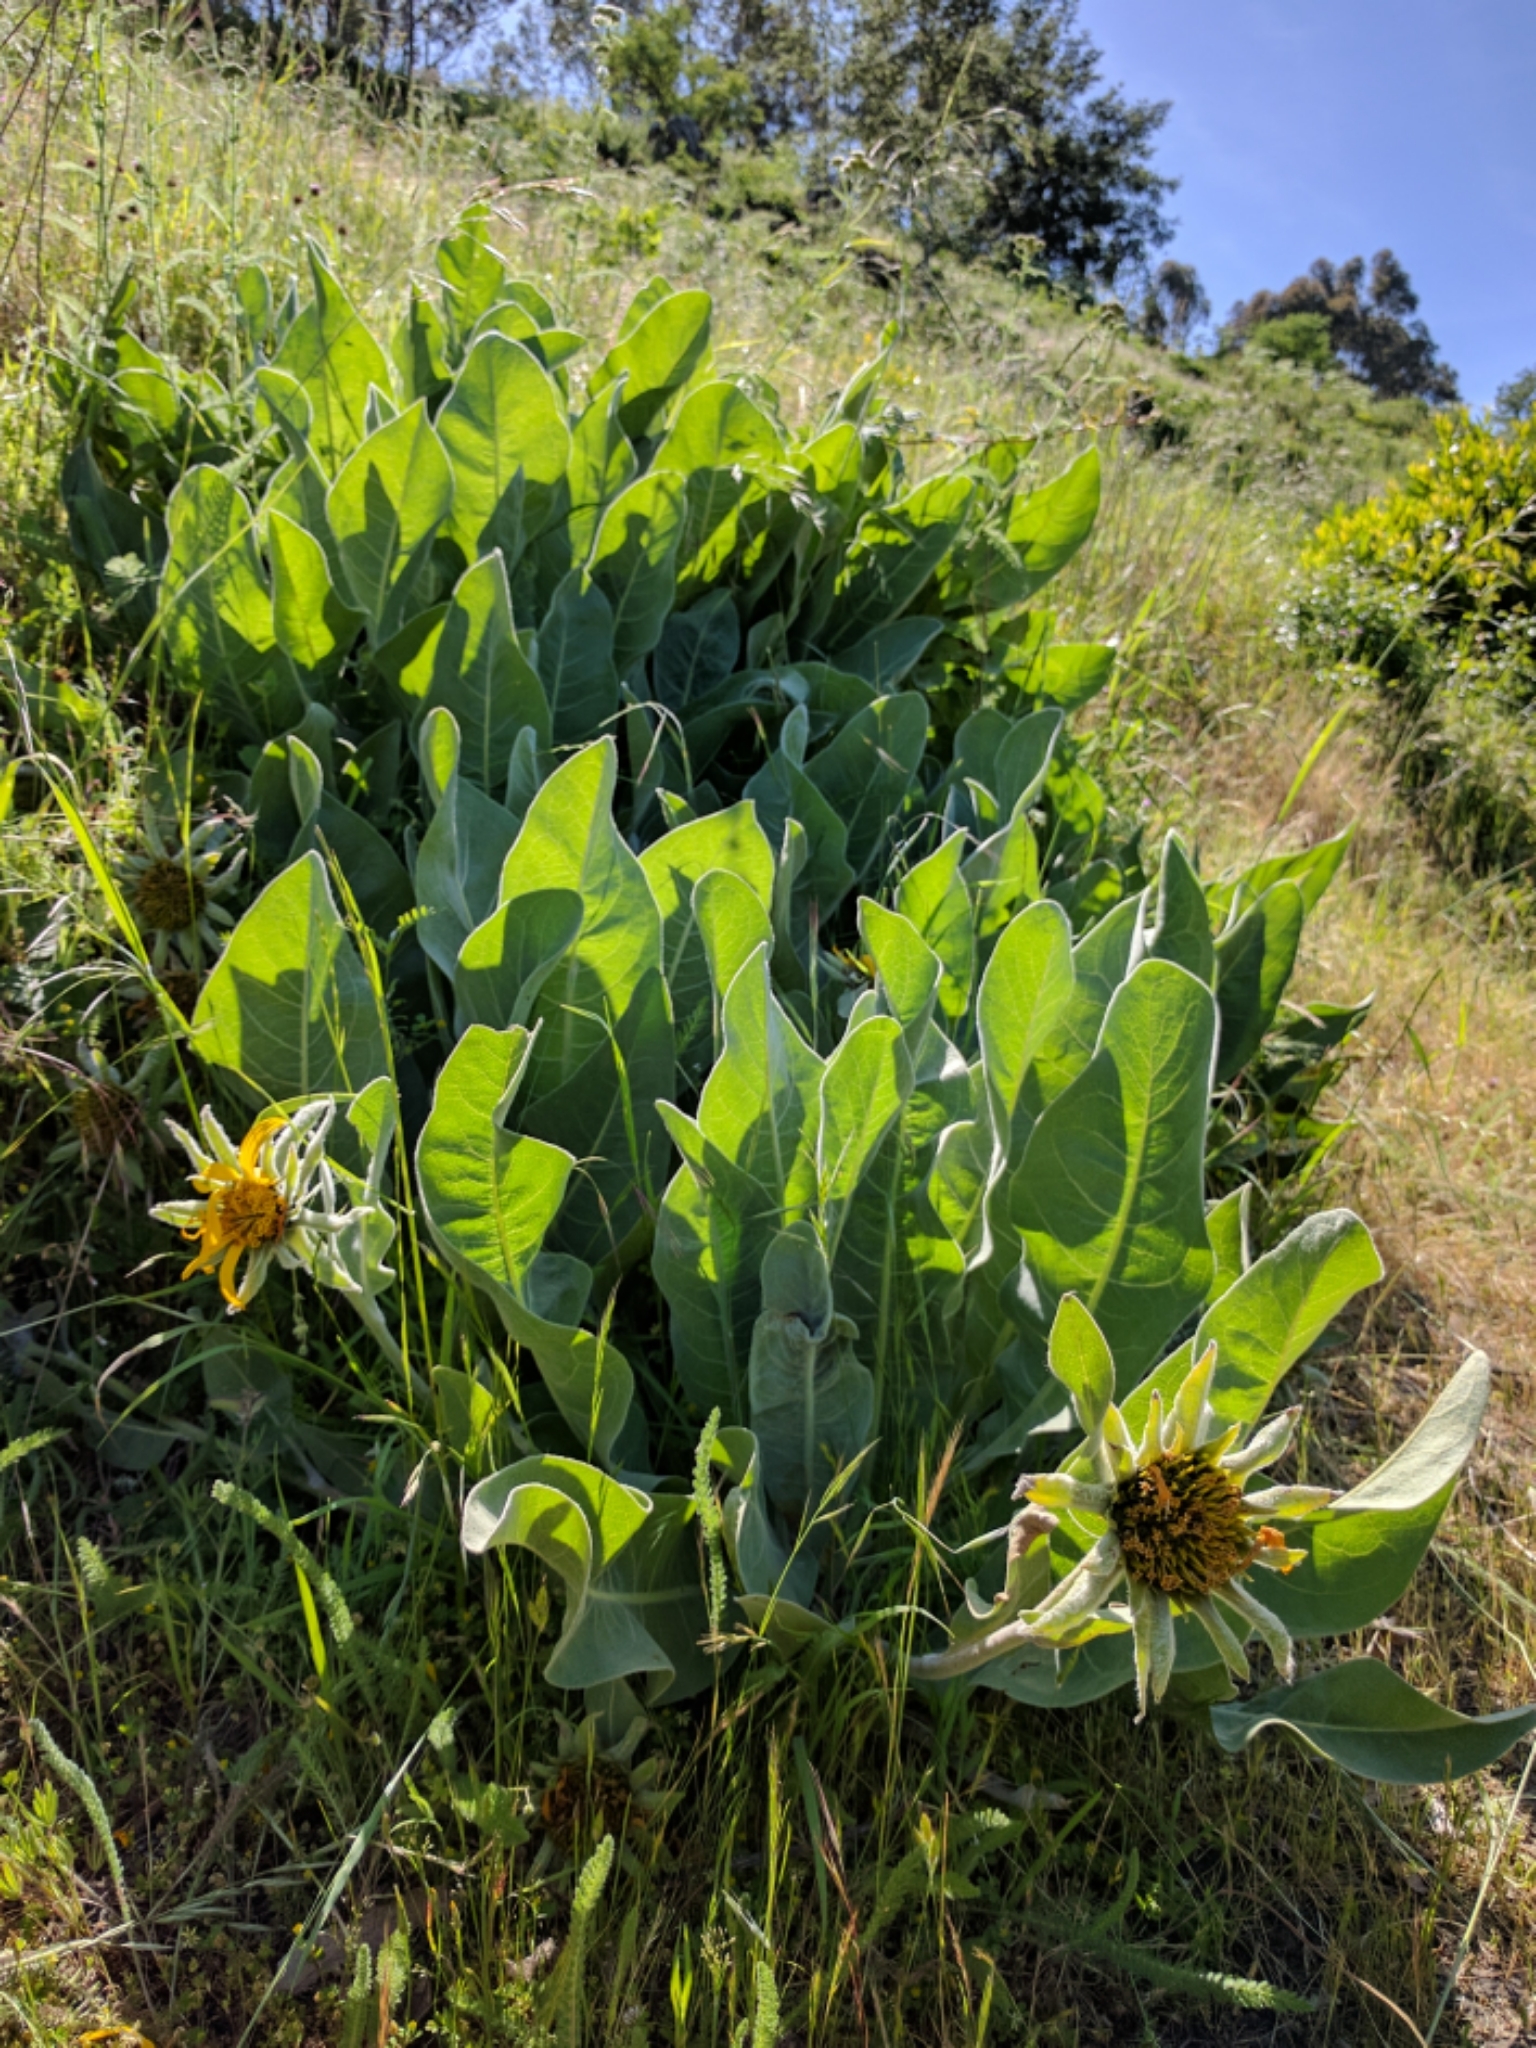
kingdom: Plantae
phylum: Tracheophyta
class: Magnoliopsida
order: Asterales
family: Asteraceae
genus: Wyethia
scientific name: Wyethia helenioides
